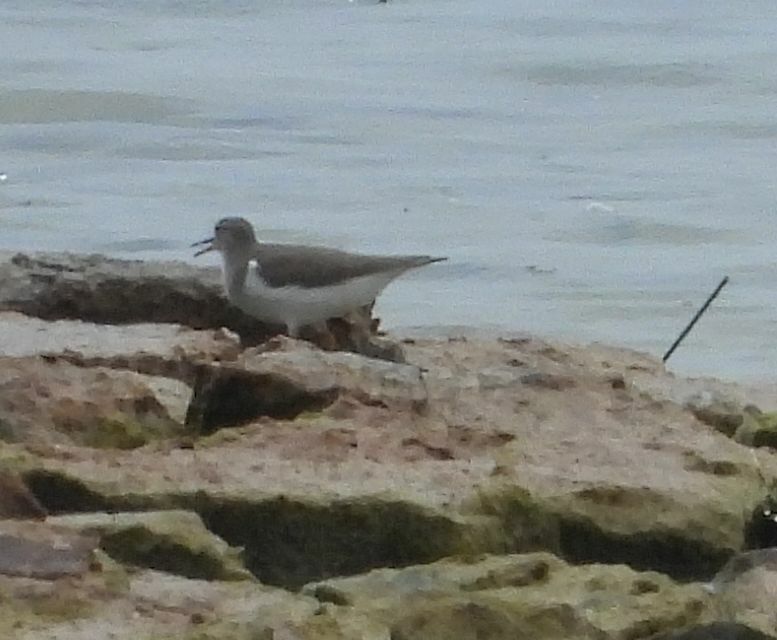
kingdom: Animalia
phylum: Chordata
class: Aves
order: Charadriiformes
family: Scolopacidae
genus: Actitis
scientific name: Actitis macularius
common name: Spotted sandpiper
